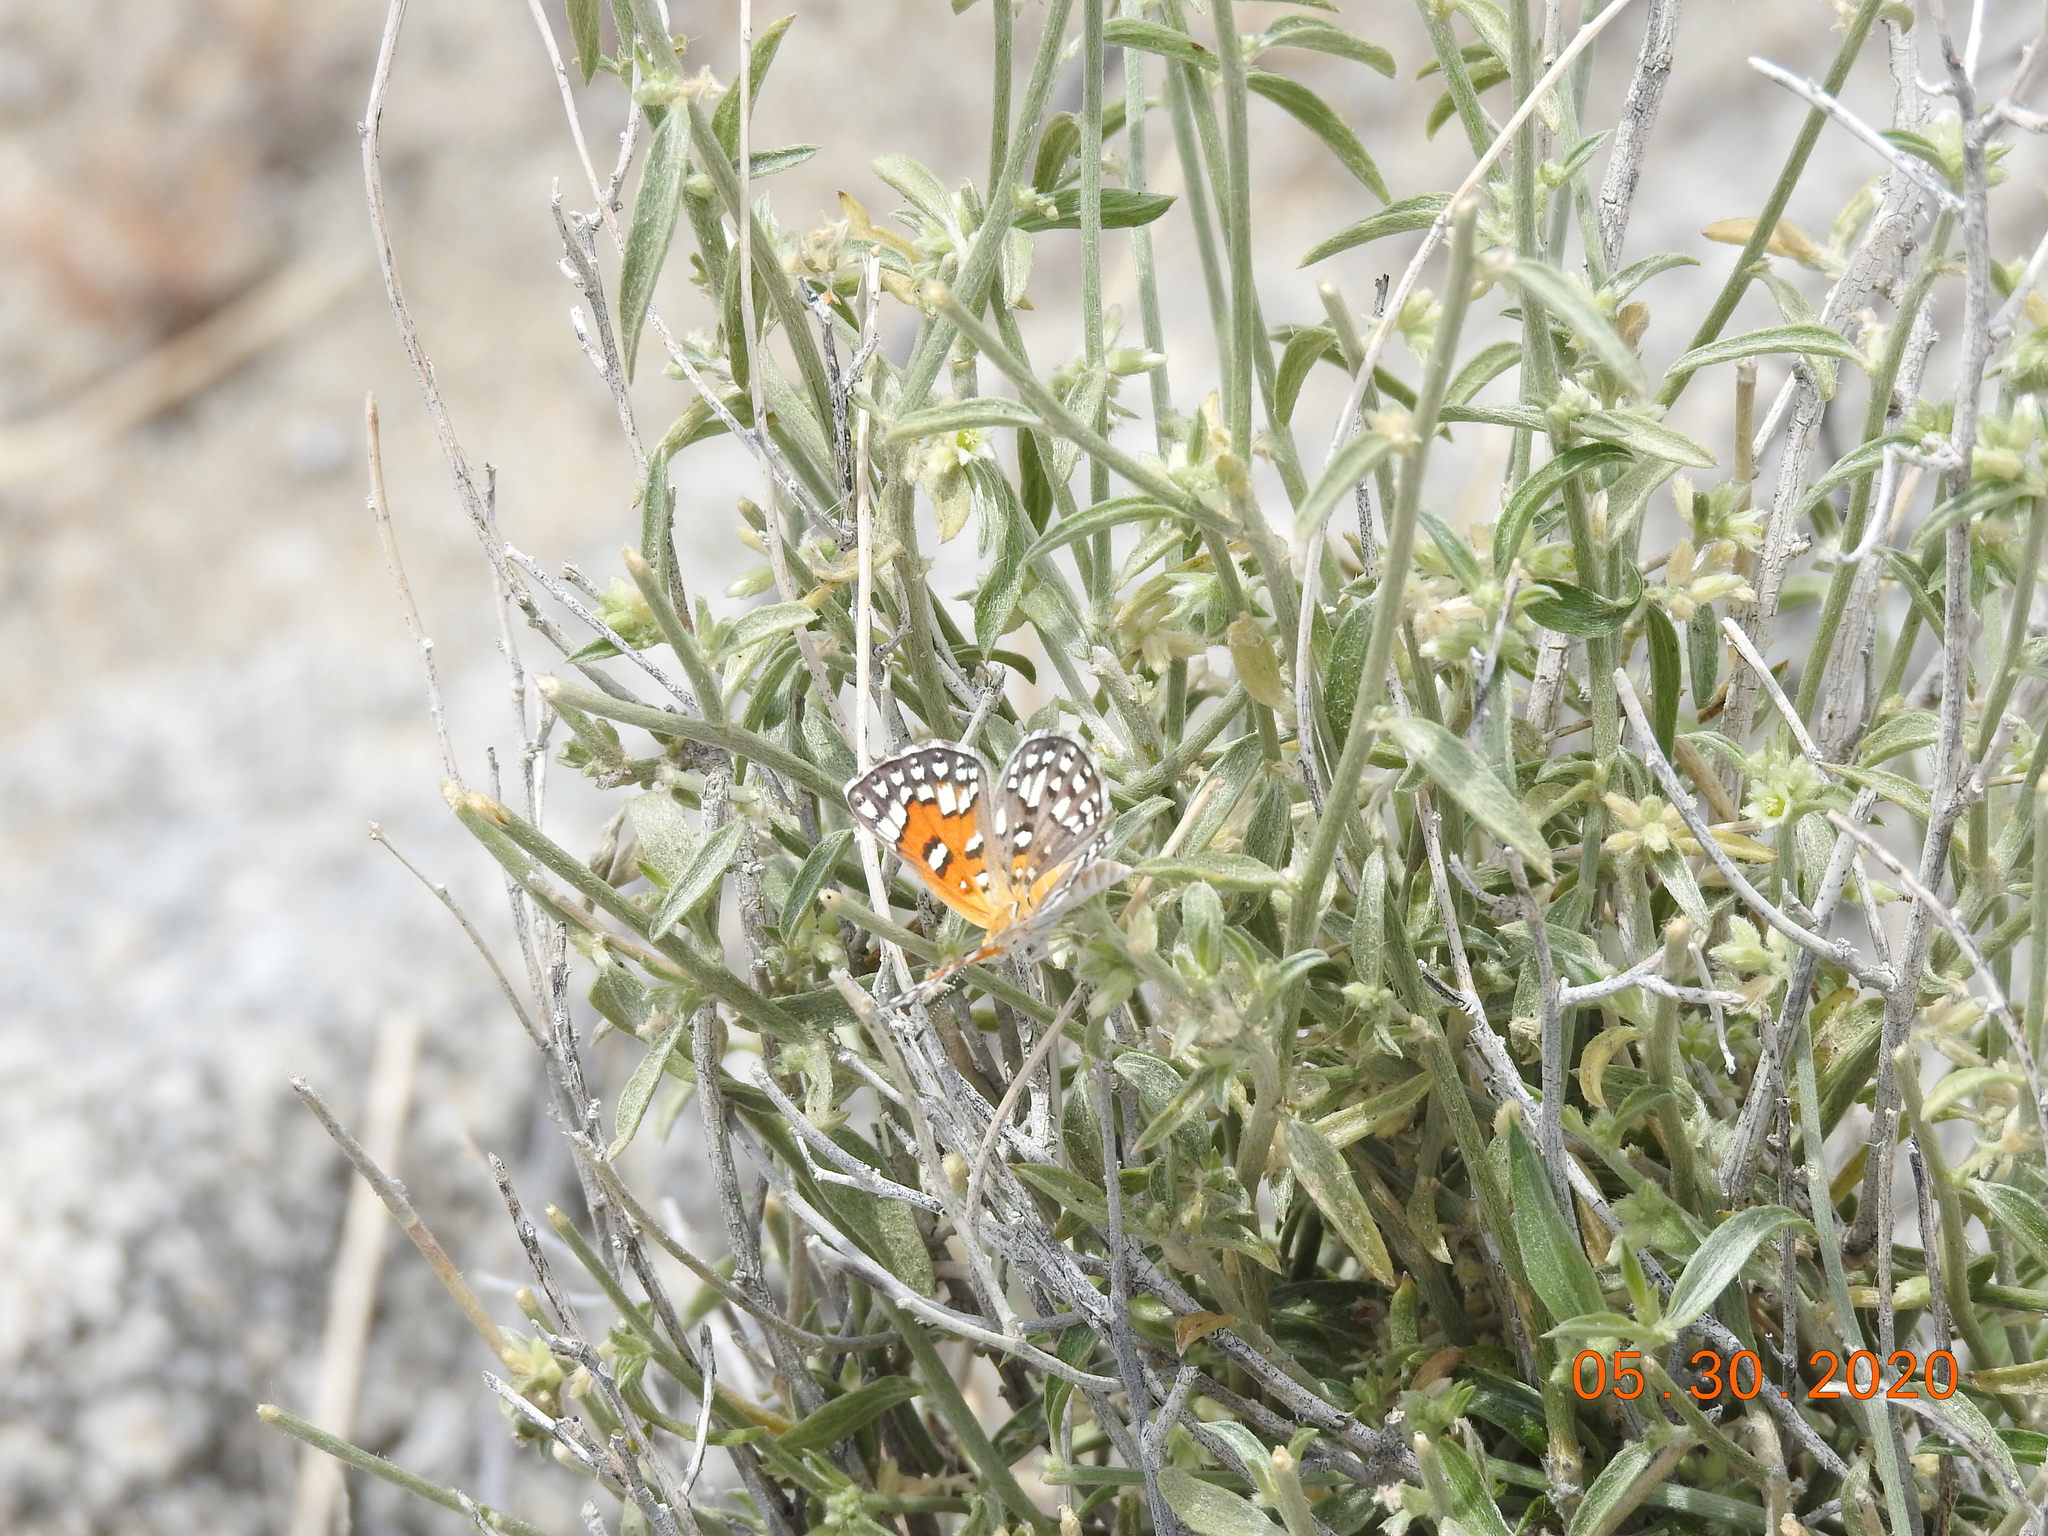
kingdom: Animalia
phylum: Arthropoda
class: Insecta
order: Lepidoptera
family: Riodinidae
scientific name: Riodinidae
